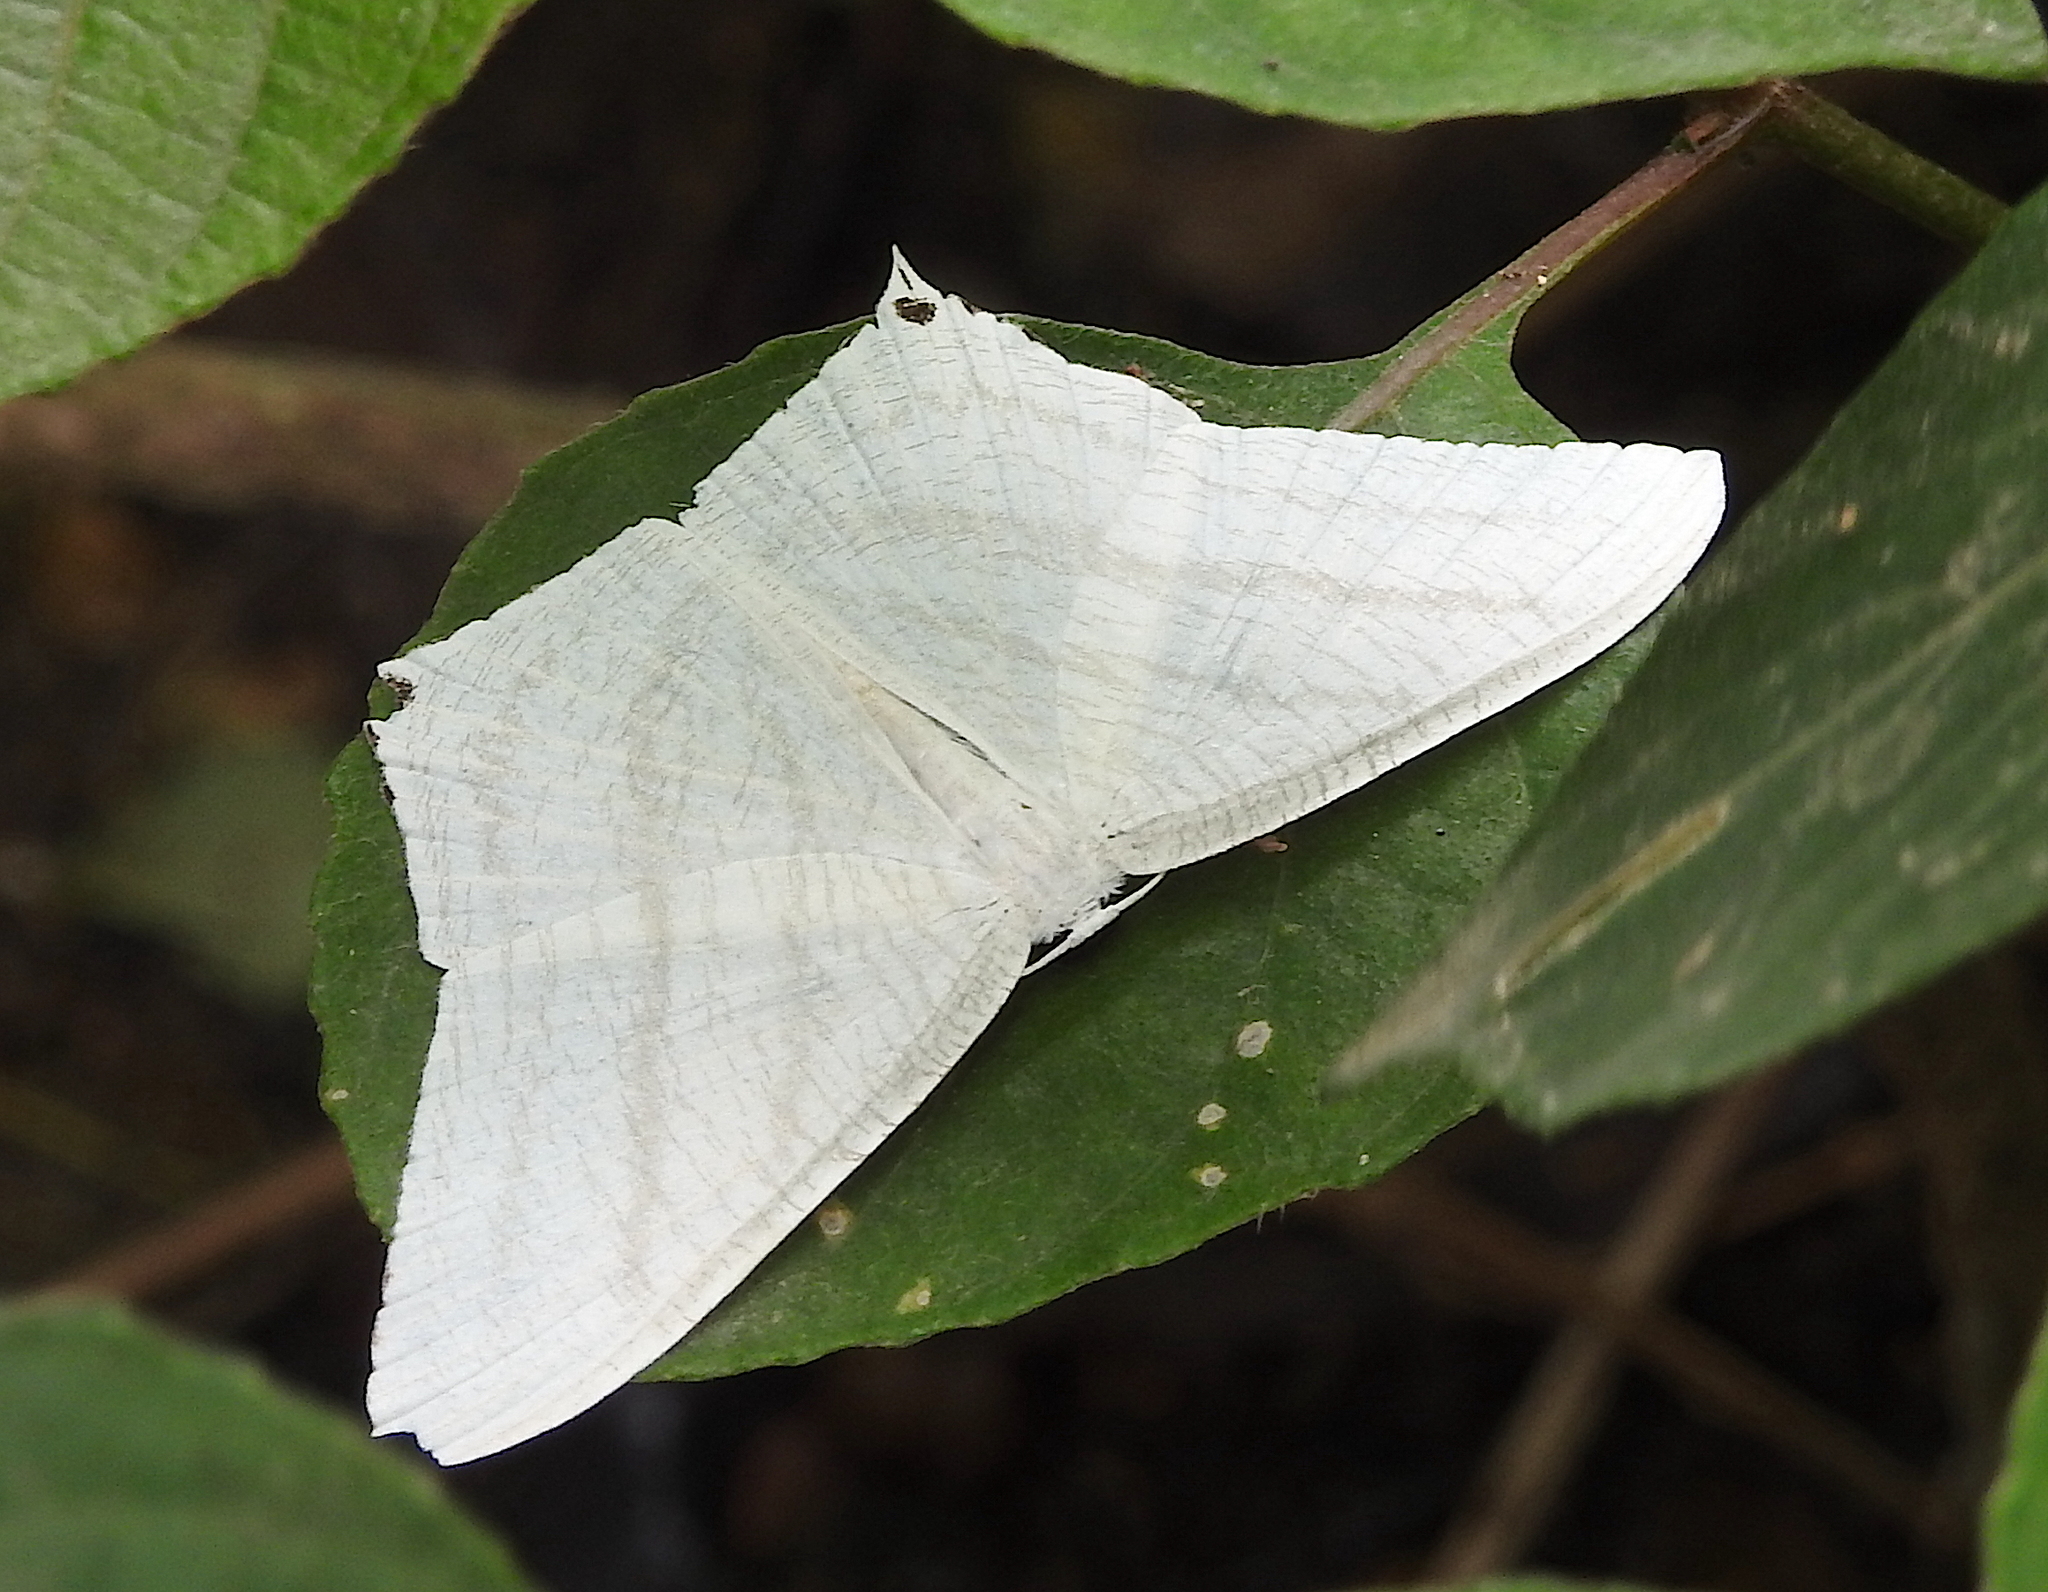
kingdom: Animalia
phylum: Arthropoda
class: Insecta
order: Lepidoptera
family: Uraniidae
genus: Micronia
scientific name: Micronia aculeata
